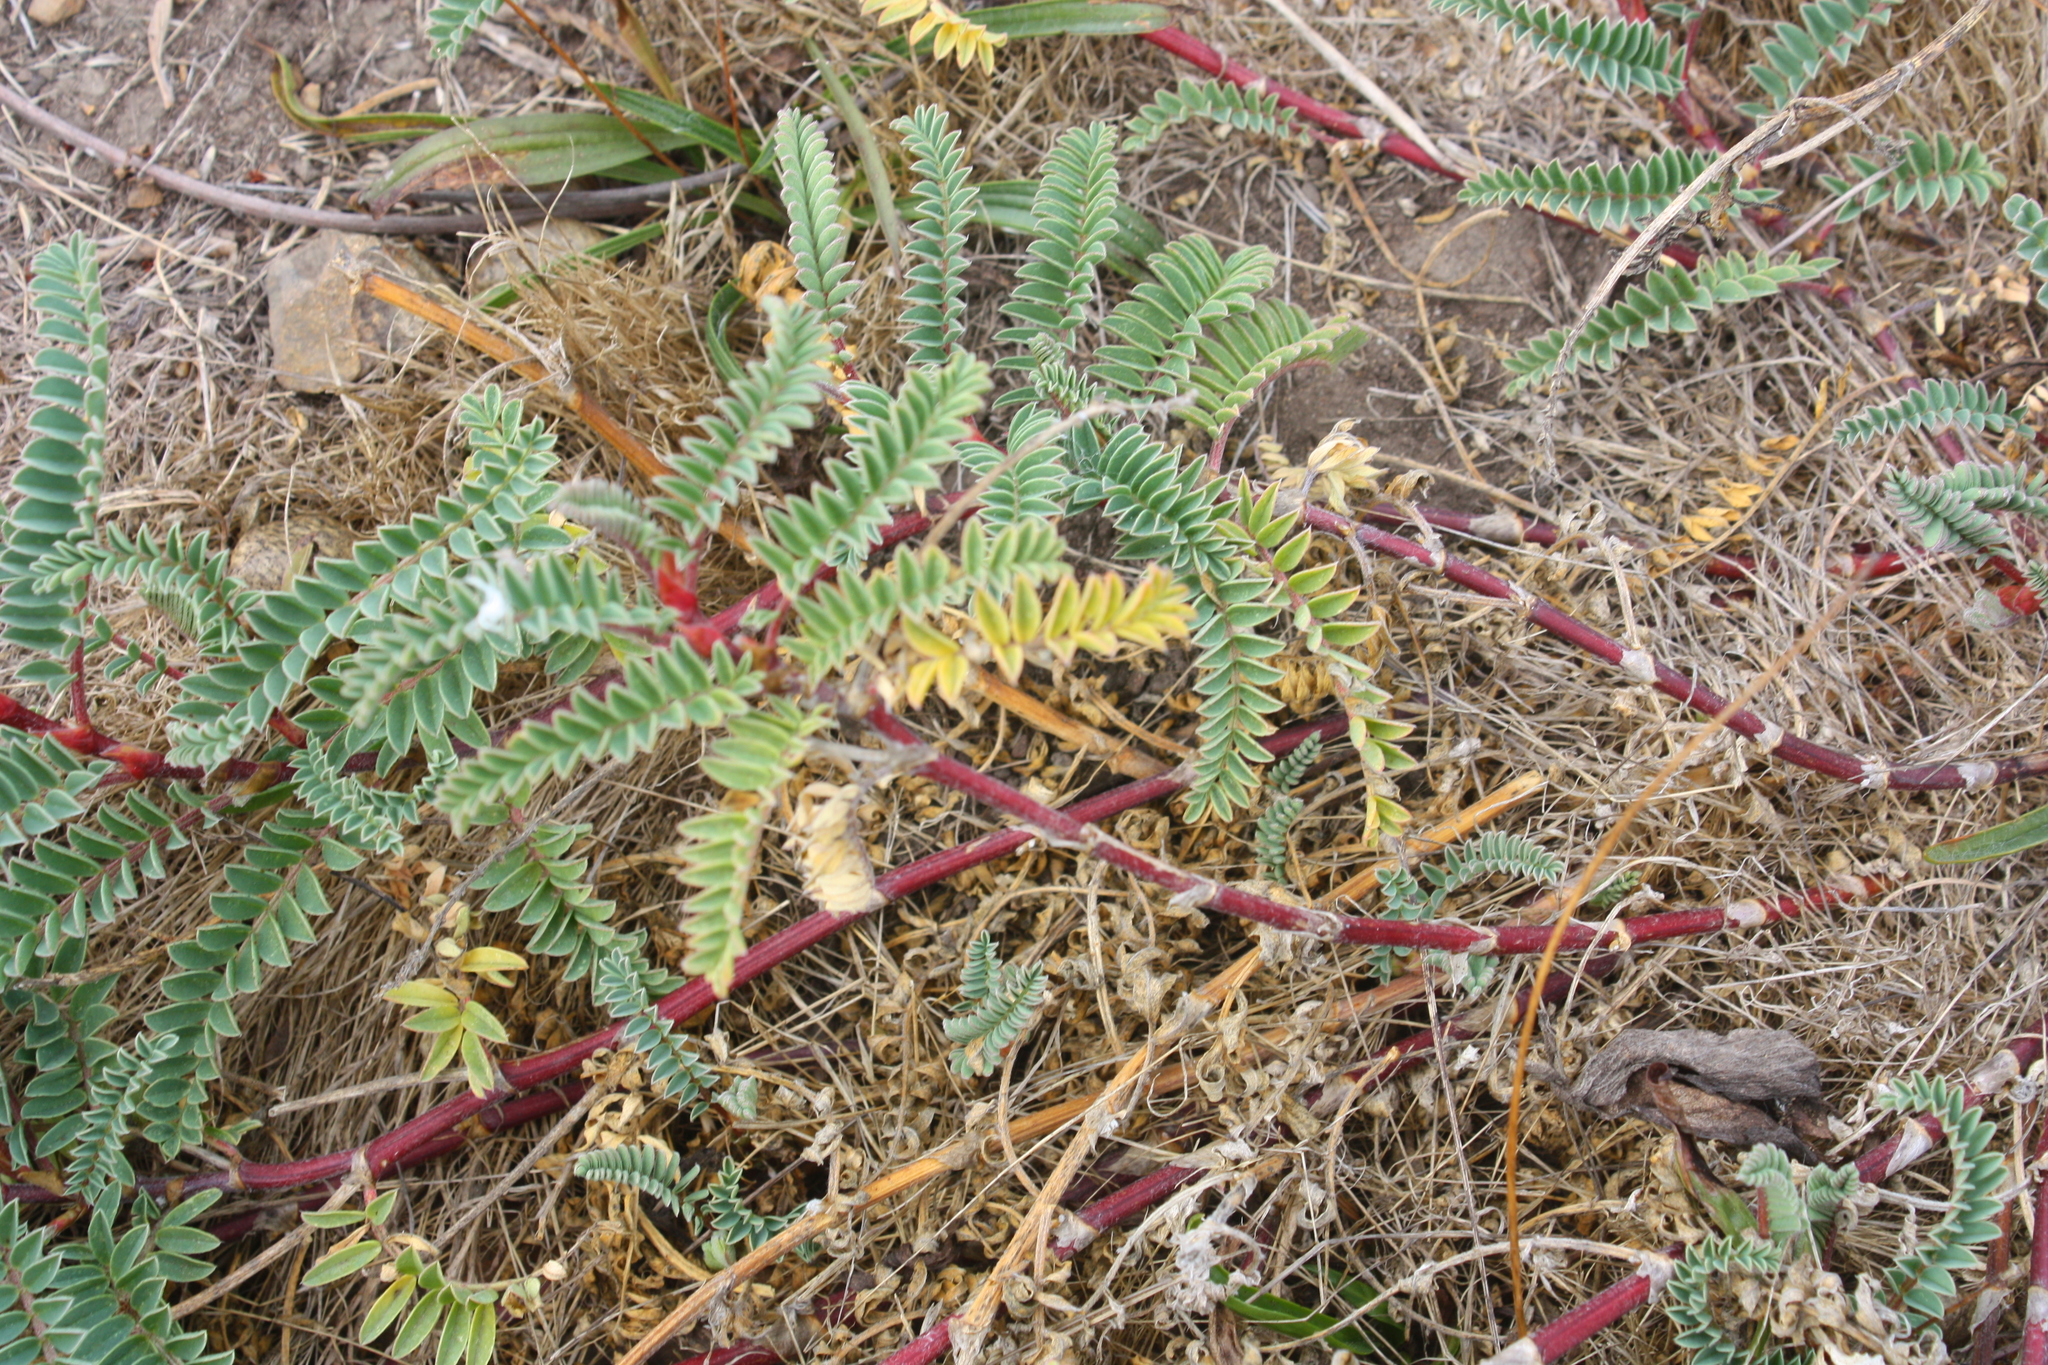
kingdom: Plantae
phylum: Tracheophyta
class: Magnoliopsida
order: Fabales
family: Fabaceae
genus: Astragalus
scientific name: Astragalus nuttallii
